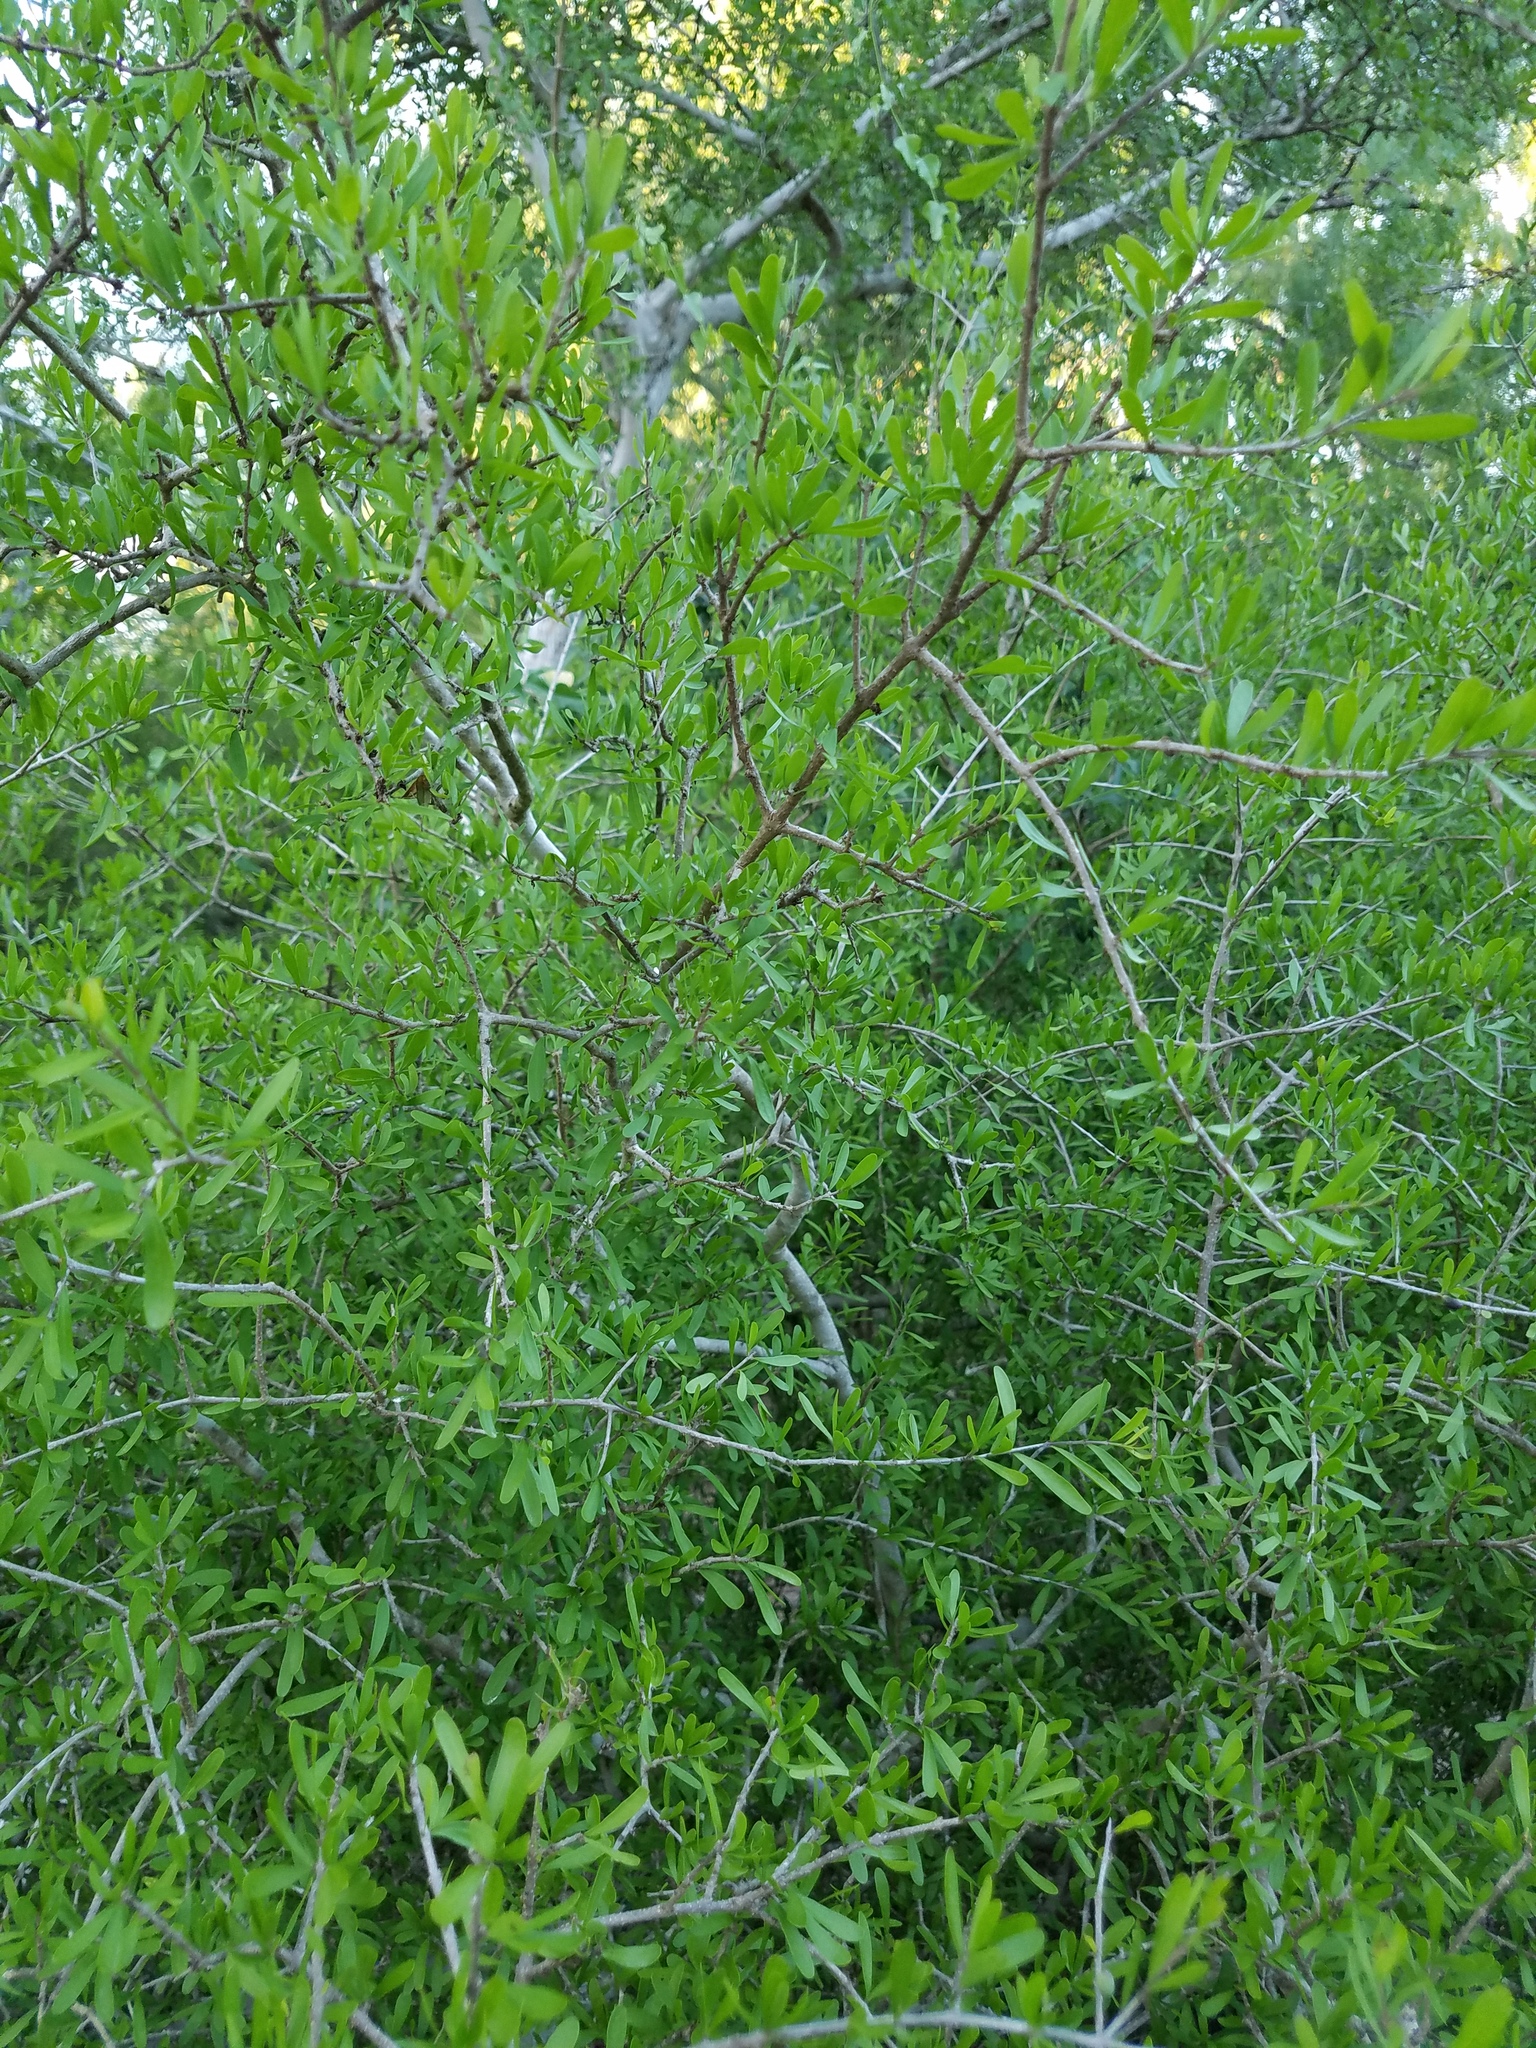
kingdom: Plantae
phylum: Tracheophyta
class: Magnoliopsida
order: Lamiales
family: Oleaceae
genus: Forestiera
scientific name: Forestiera angustifolia
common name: Elbowbush
